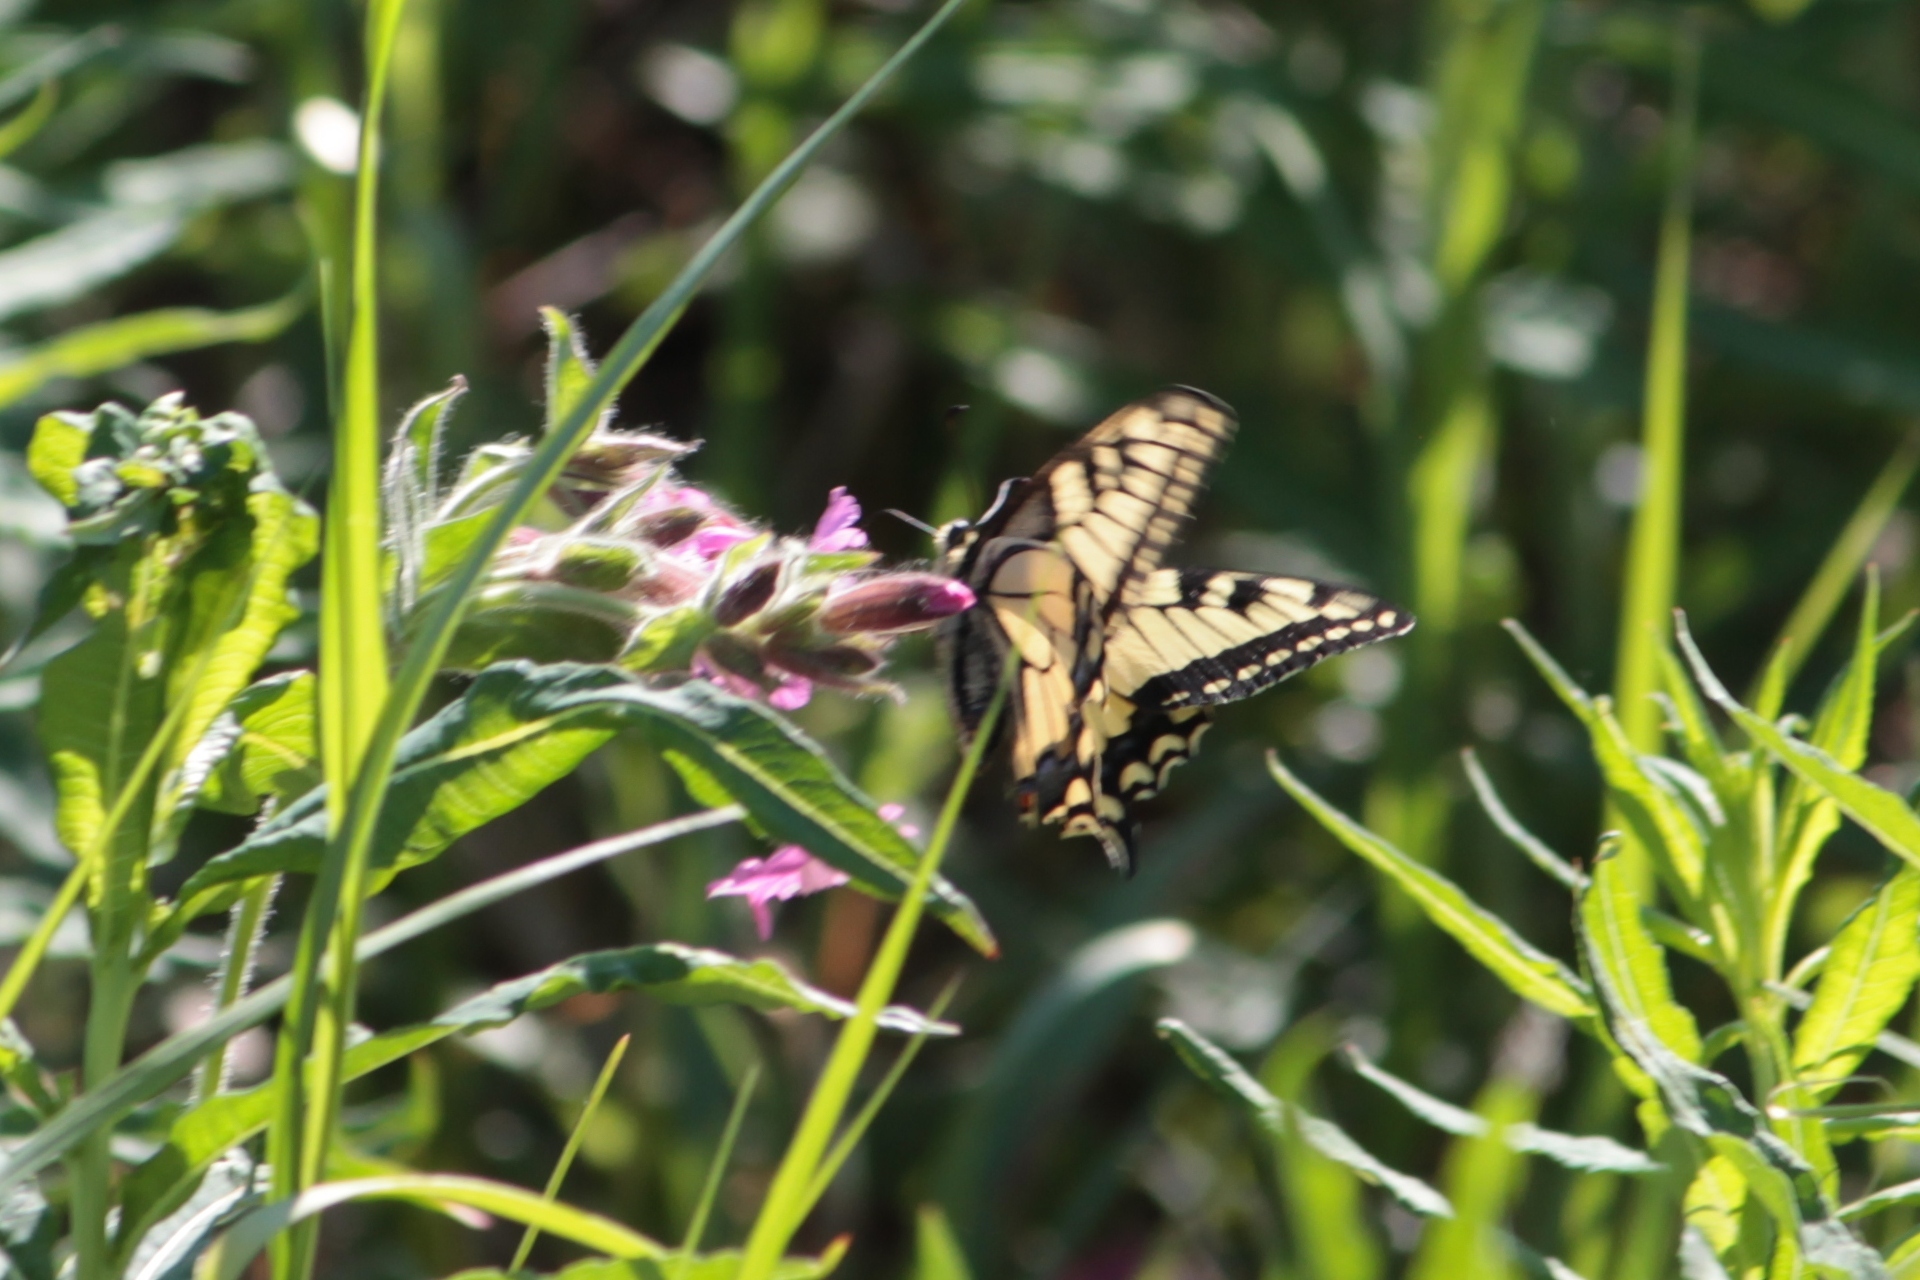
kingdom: Animalia
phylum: Arthropoda
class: Insecta
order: Lepidoptera
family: Papilionidae
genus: Papilio
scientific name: Papilio machaon
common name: Swallowtail
